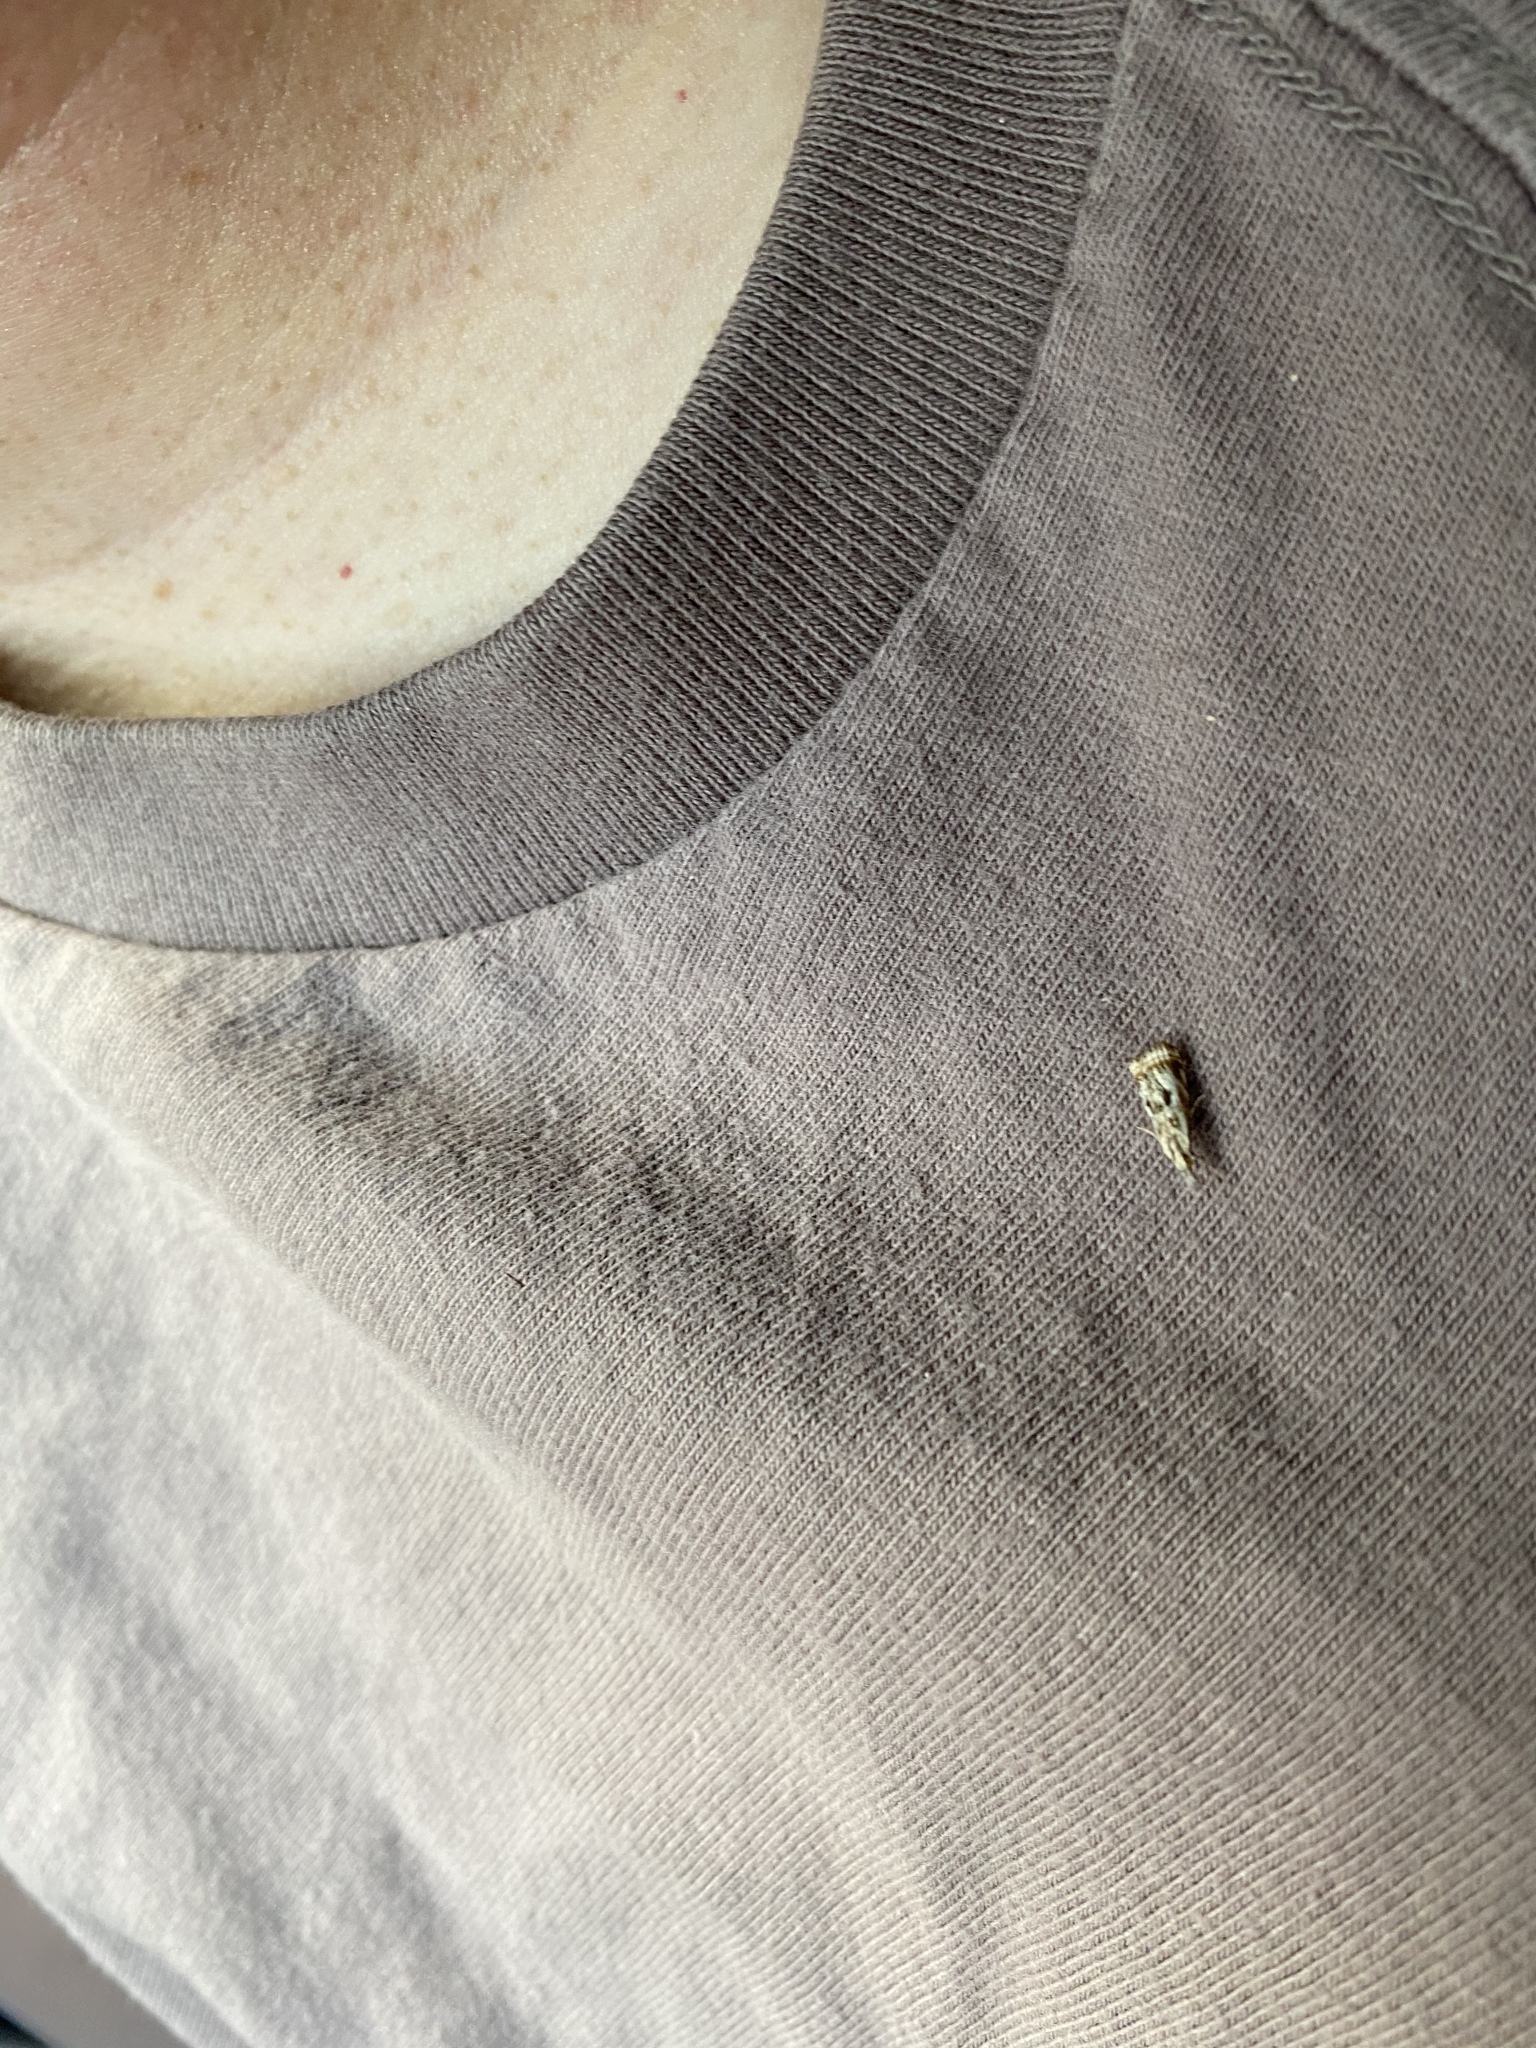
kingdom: Animalia
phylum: Arthropoda
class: Insecta
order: Lepidoptera
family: Crambidae
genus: Microcrambus
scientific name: Microcrambus elegans
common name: Elegant grass-veneer
